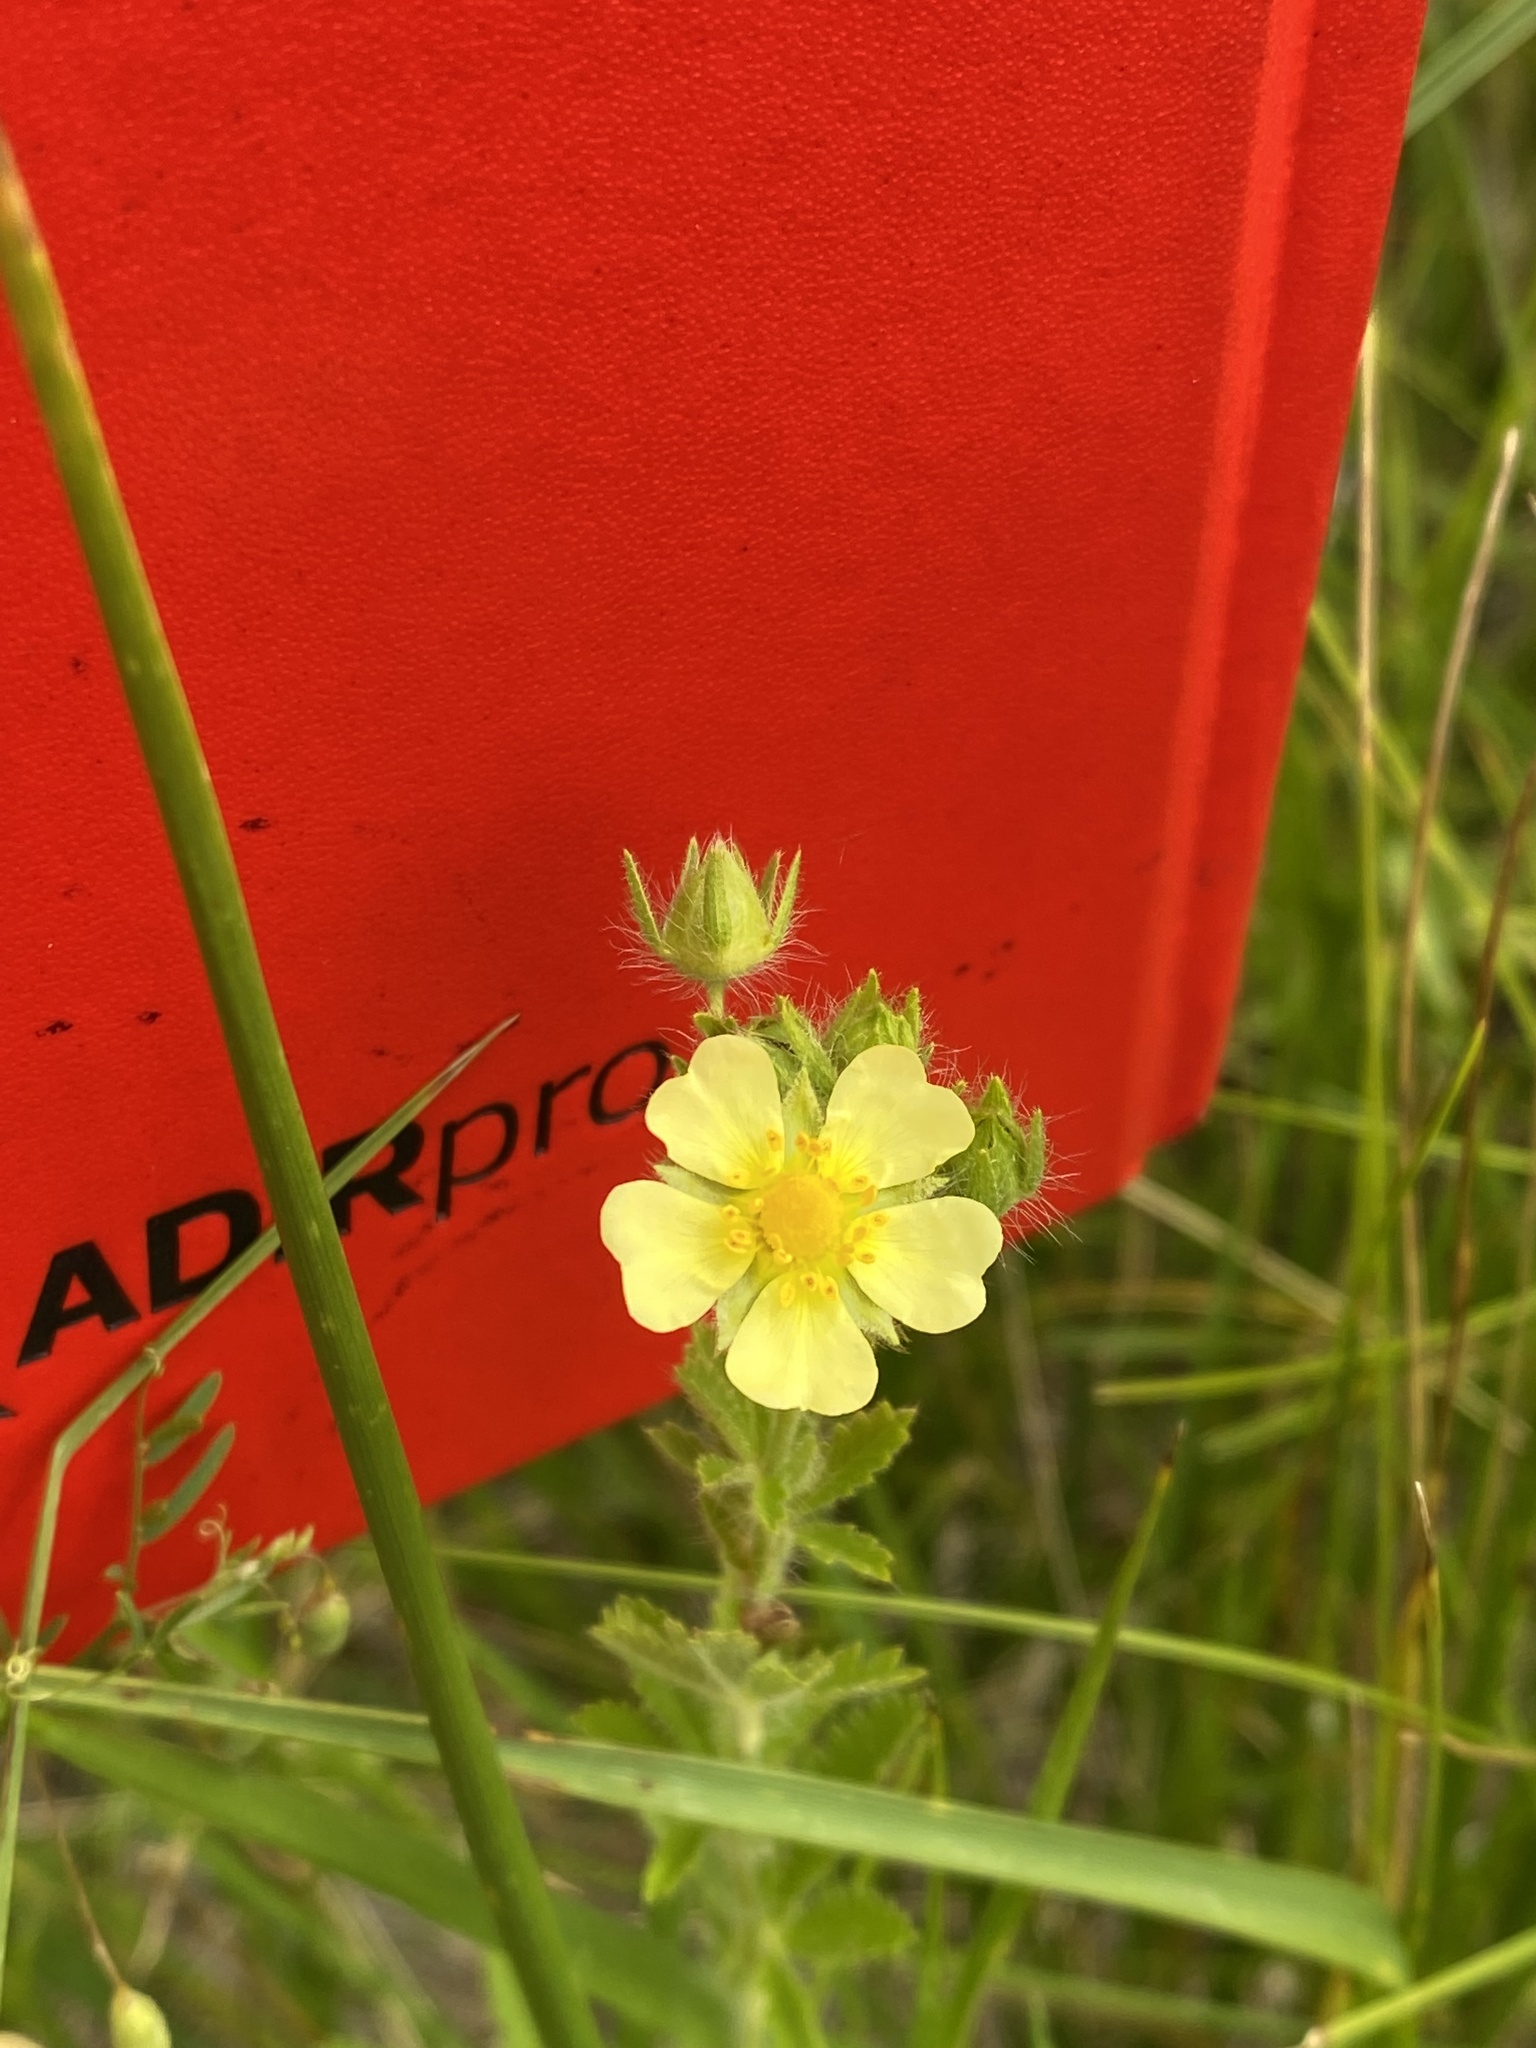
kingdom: Plantae
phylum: Tracheophyta
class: Magnoliopsida
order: Rosales
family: Rosaceae
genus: Potentilla
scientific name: Potentilla recta
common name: Sulphur cinquefoil
